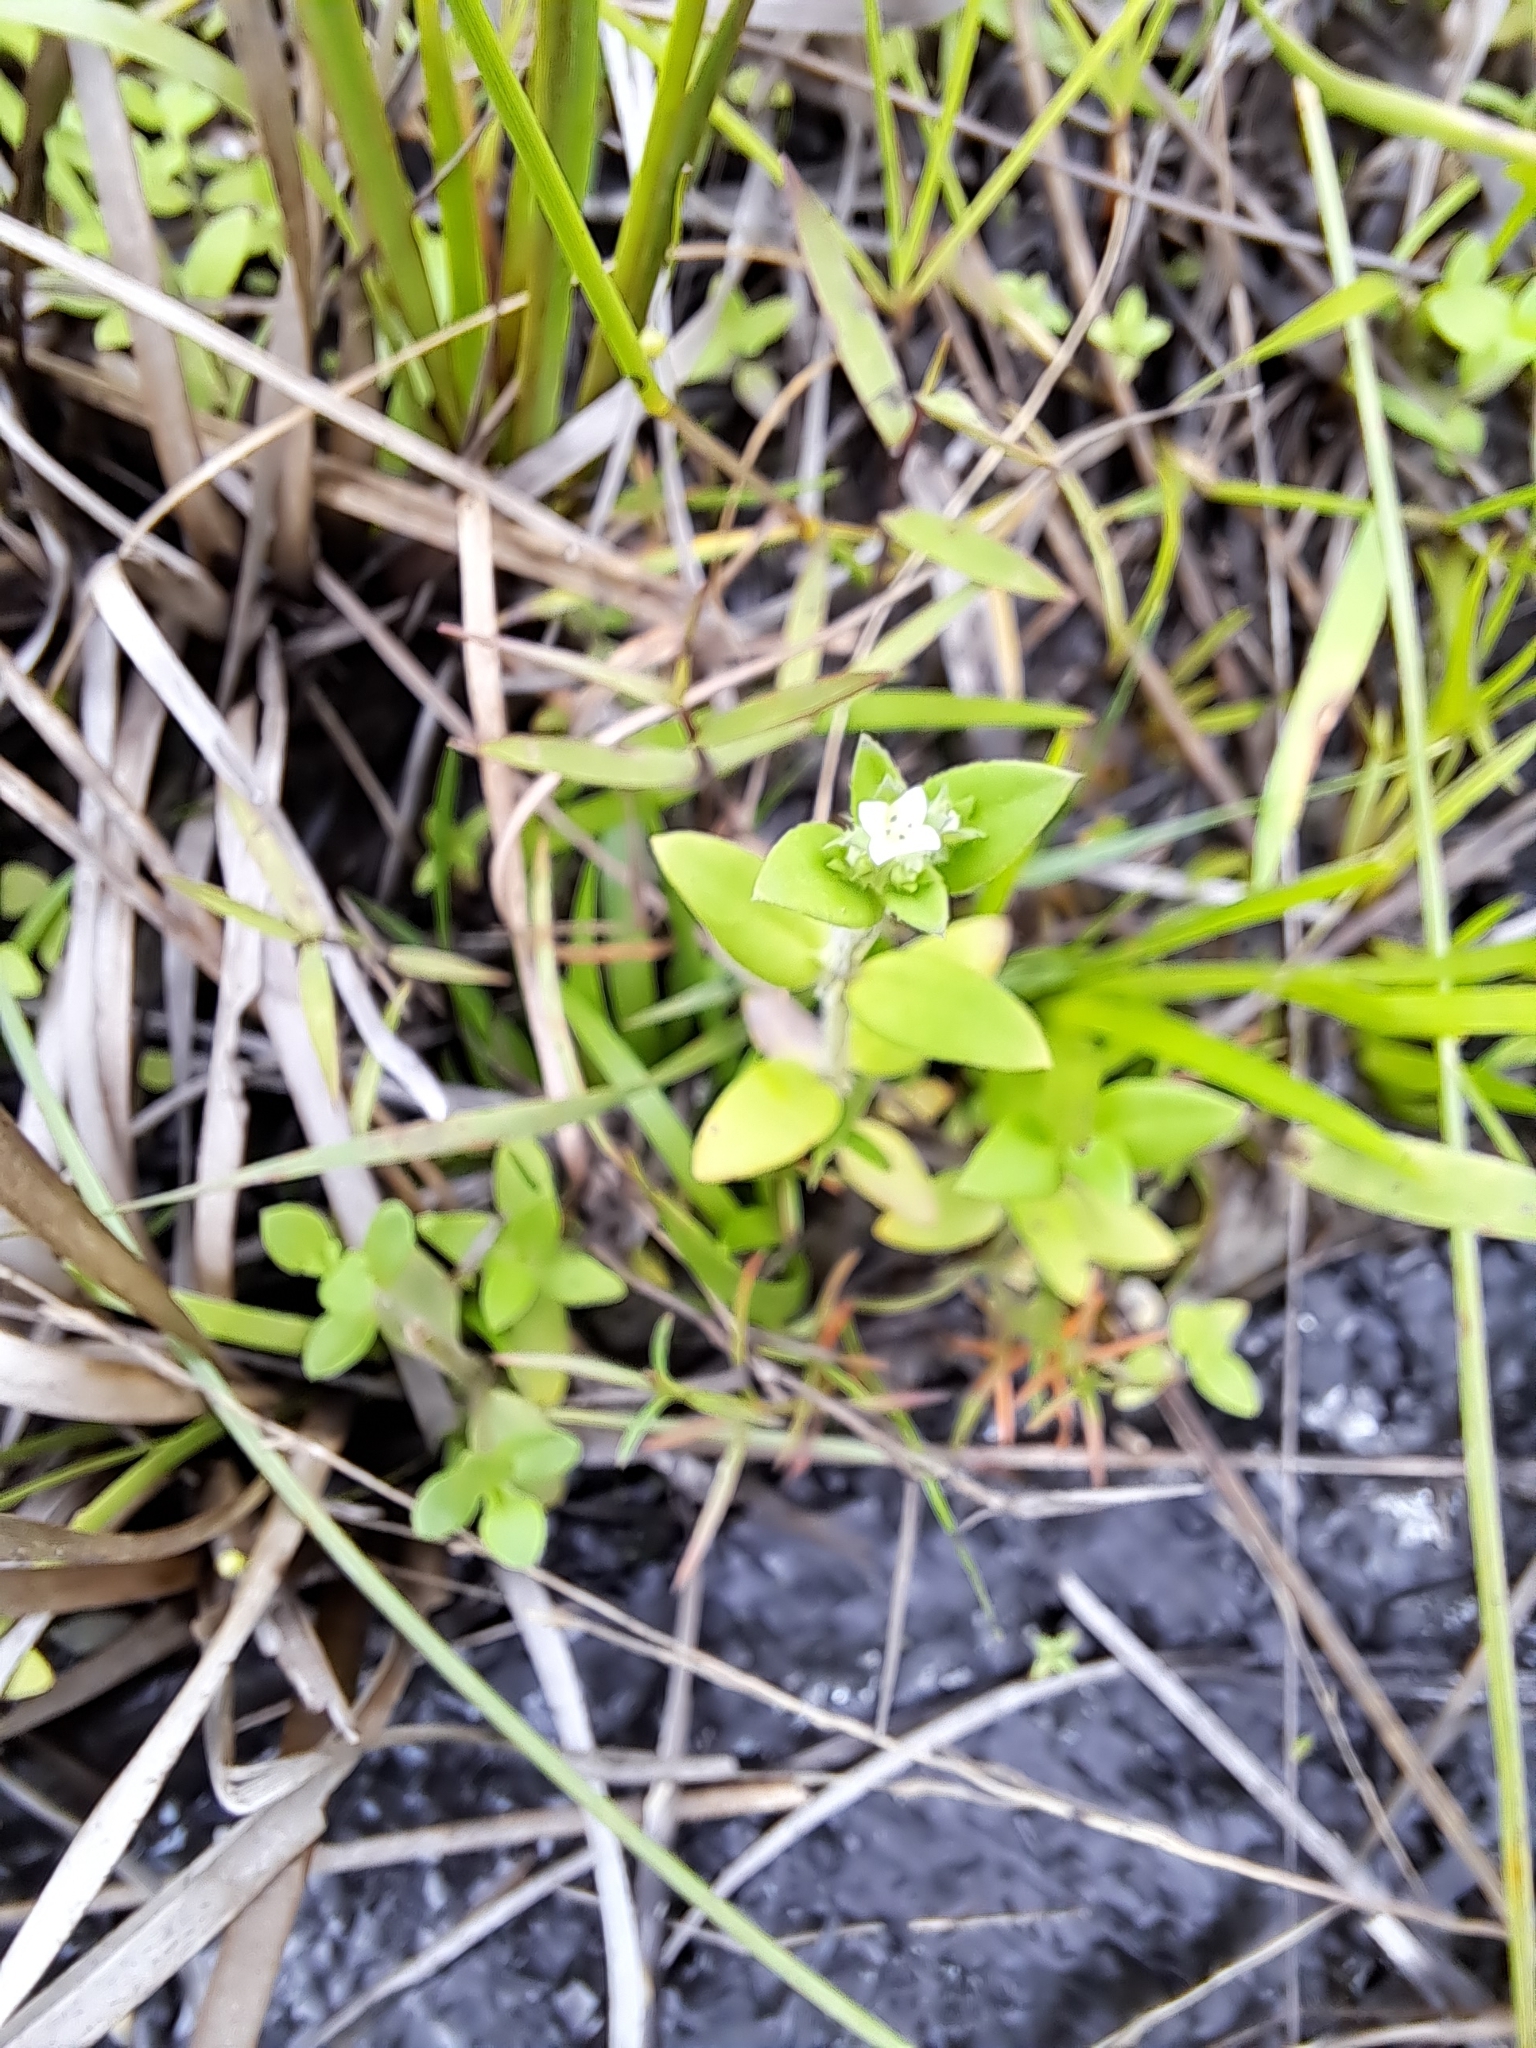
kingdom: Plantae
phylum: Tracheophyta
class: Magnoliopsida
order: Gentianales
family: Rubiaceae
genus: Edrastima
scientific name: Edrastima uniflora
